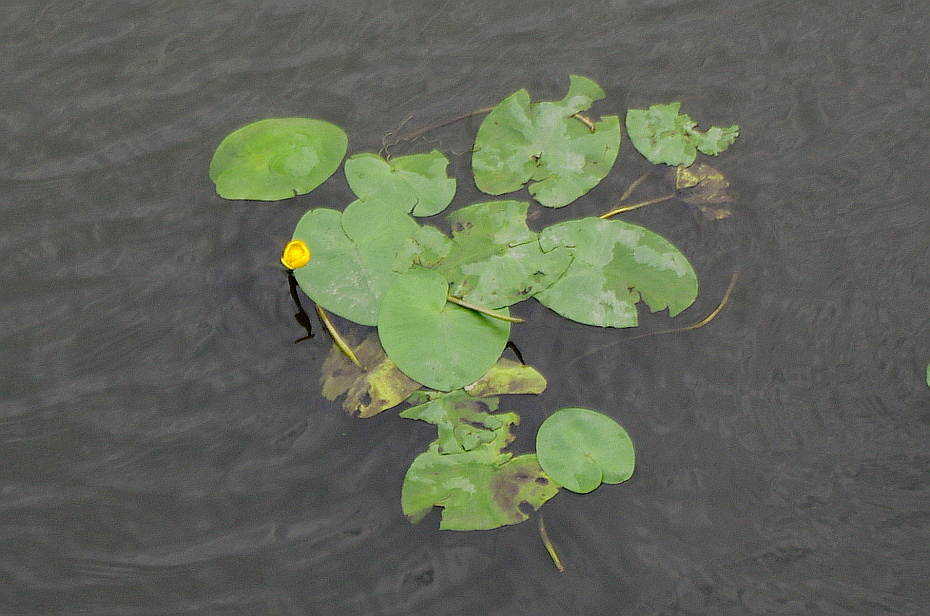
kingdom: Plantae
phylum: Tracheophyta
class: Magnoliopsida
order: Nymphaeales
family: Nymphaeaceae
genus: Nuphar
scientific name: Nuphar lutea
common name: Yellow water-lily
